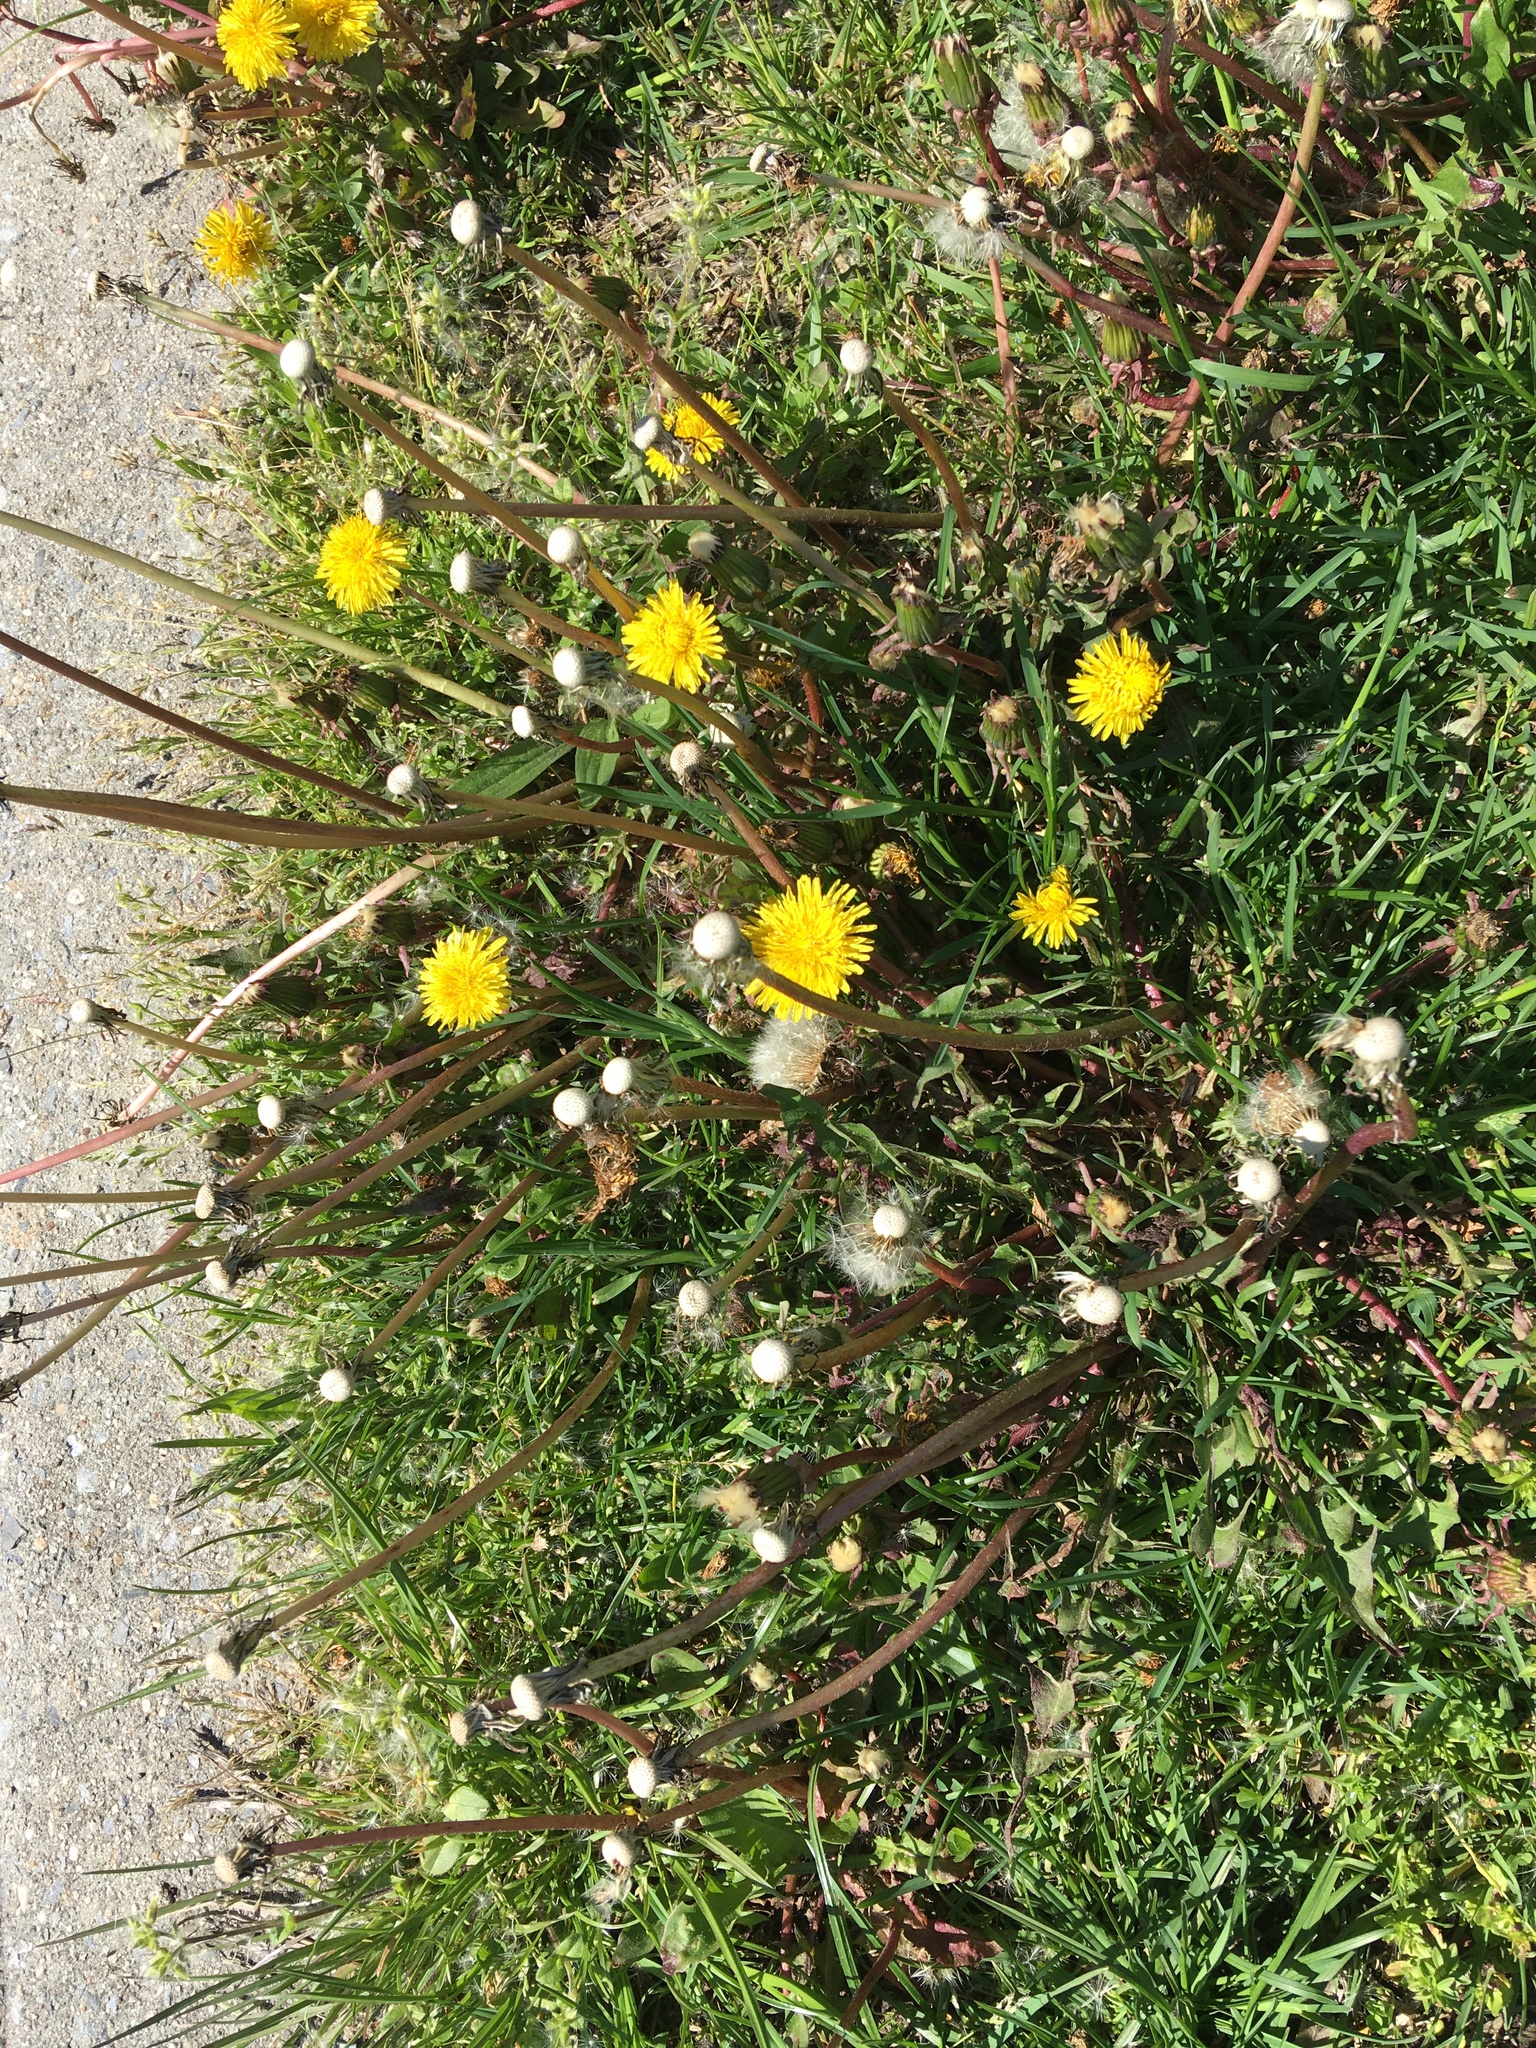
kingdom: Plantae
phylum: Tracheophyta
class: Magnoliopsida
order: Asterales
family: Asteraceae
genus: Taraxacum
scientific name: Taraxacum officinale
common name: Common dandelion
